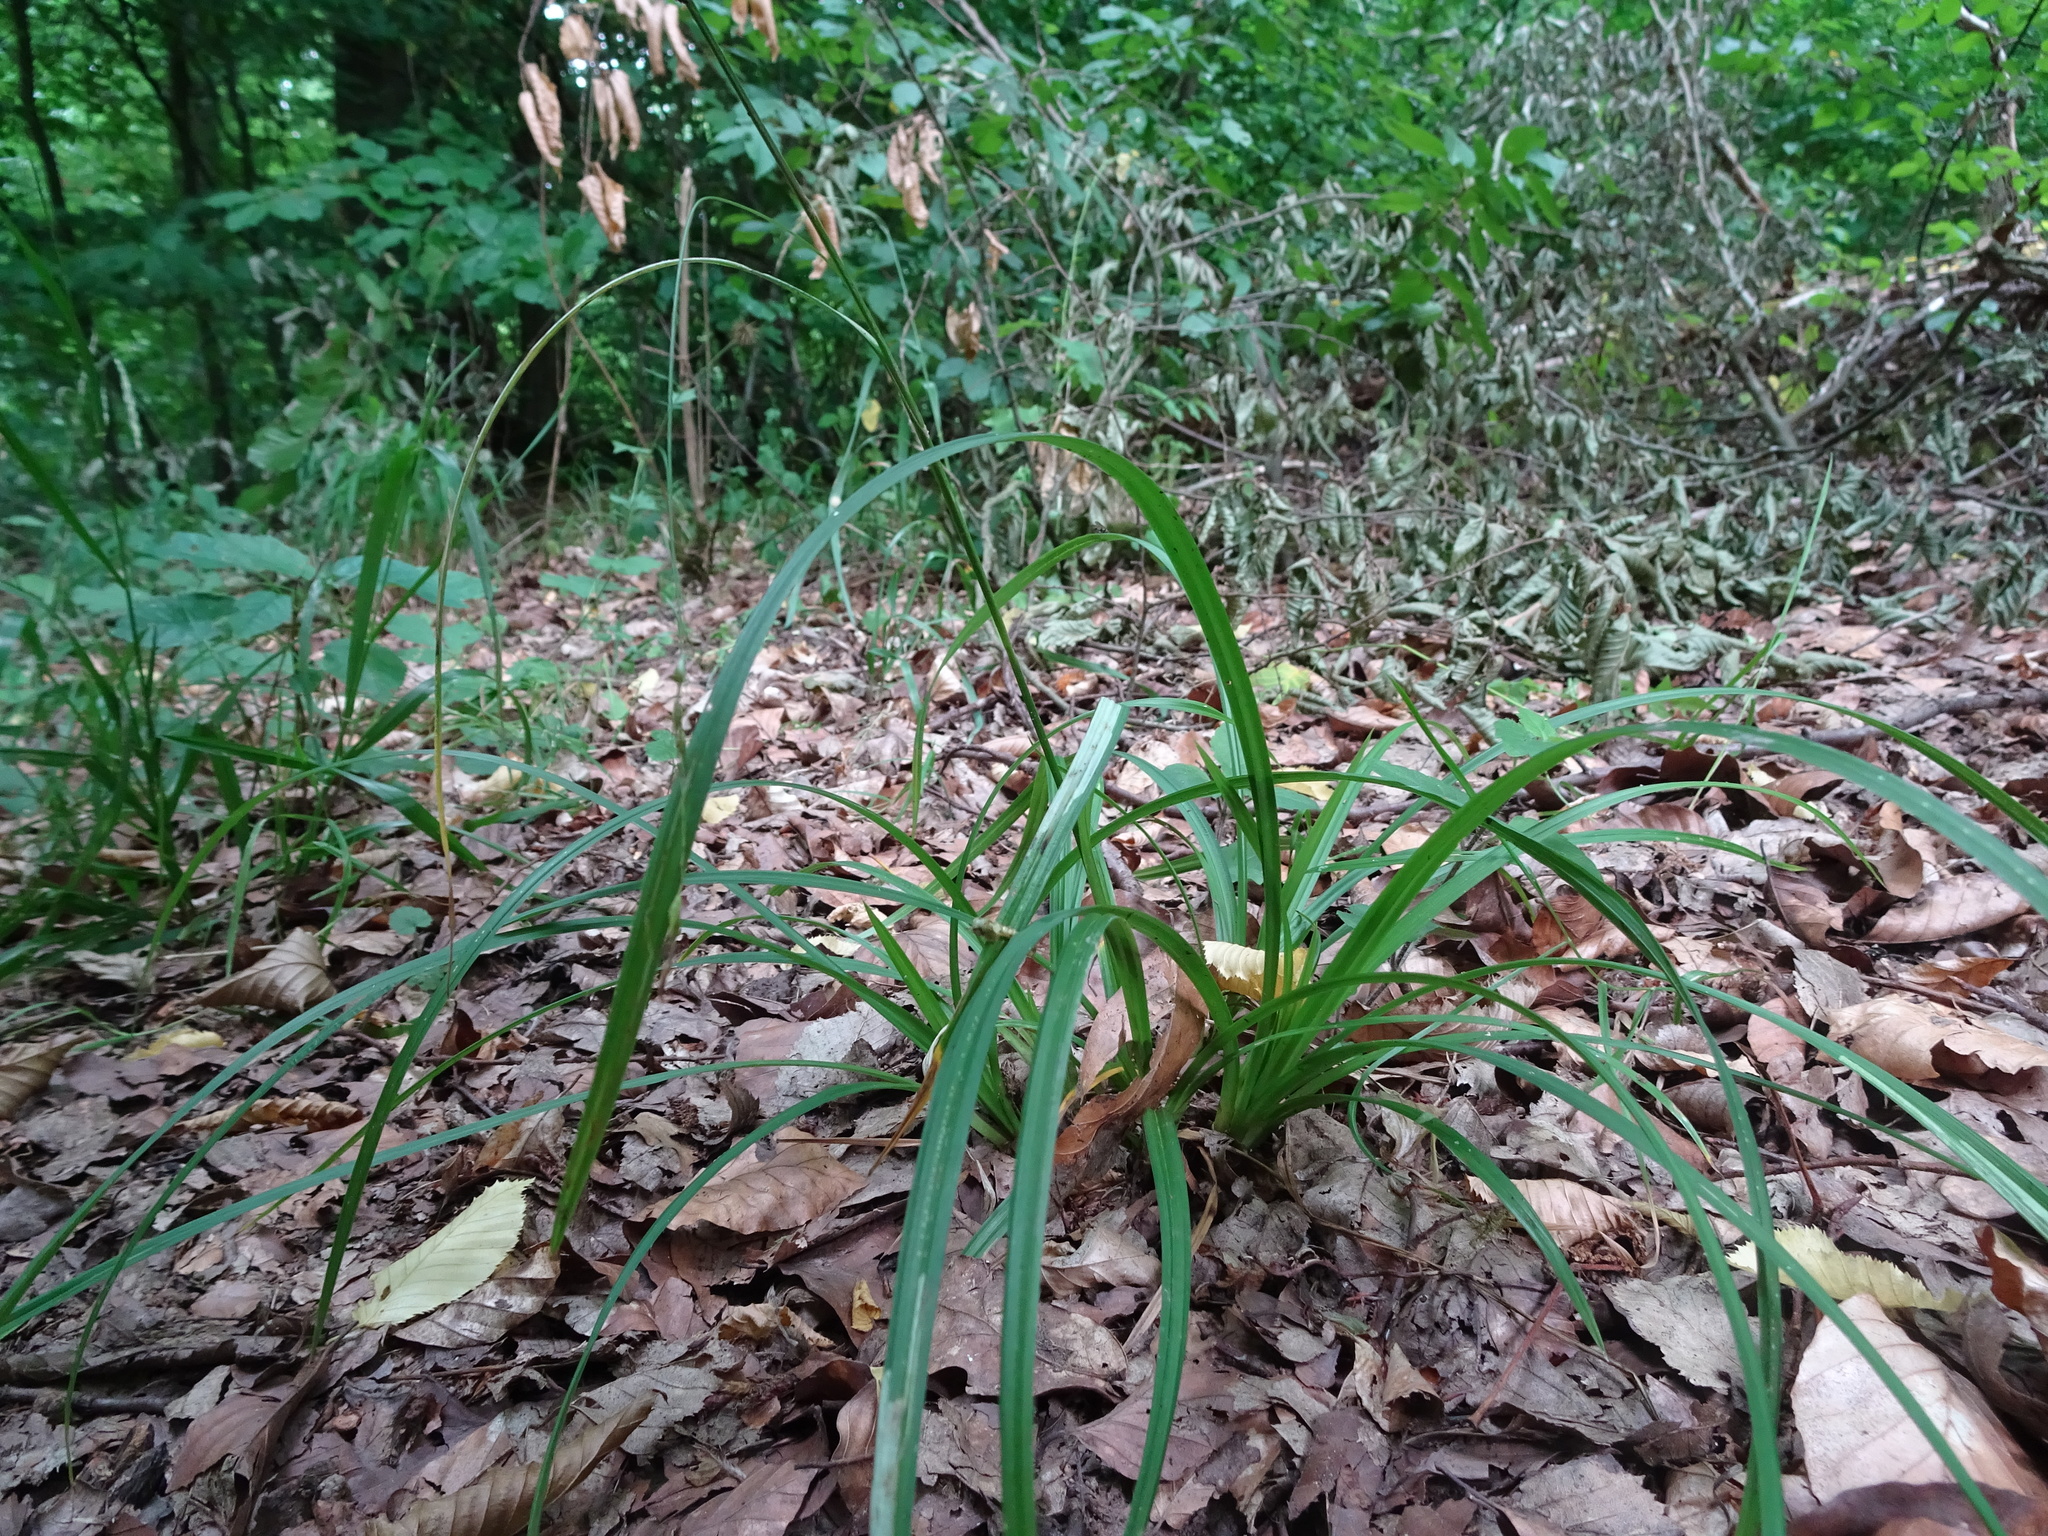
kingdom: Plantae
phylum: Tracheophyta
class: Liliopsida
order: Poales
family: Cyperaceae
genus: Carex
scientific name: Carex sylvatica
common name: Wood-sedge
